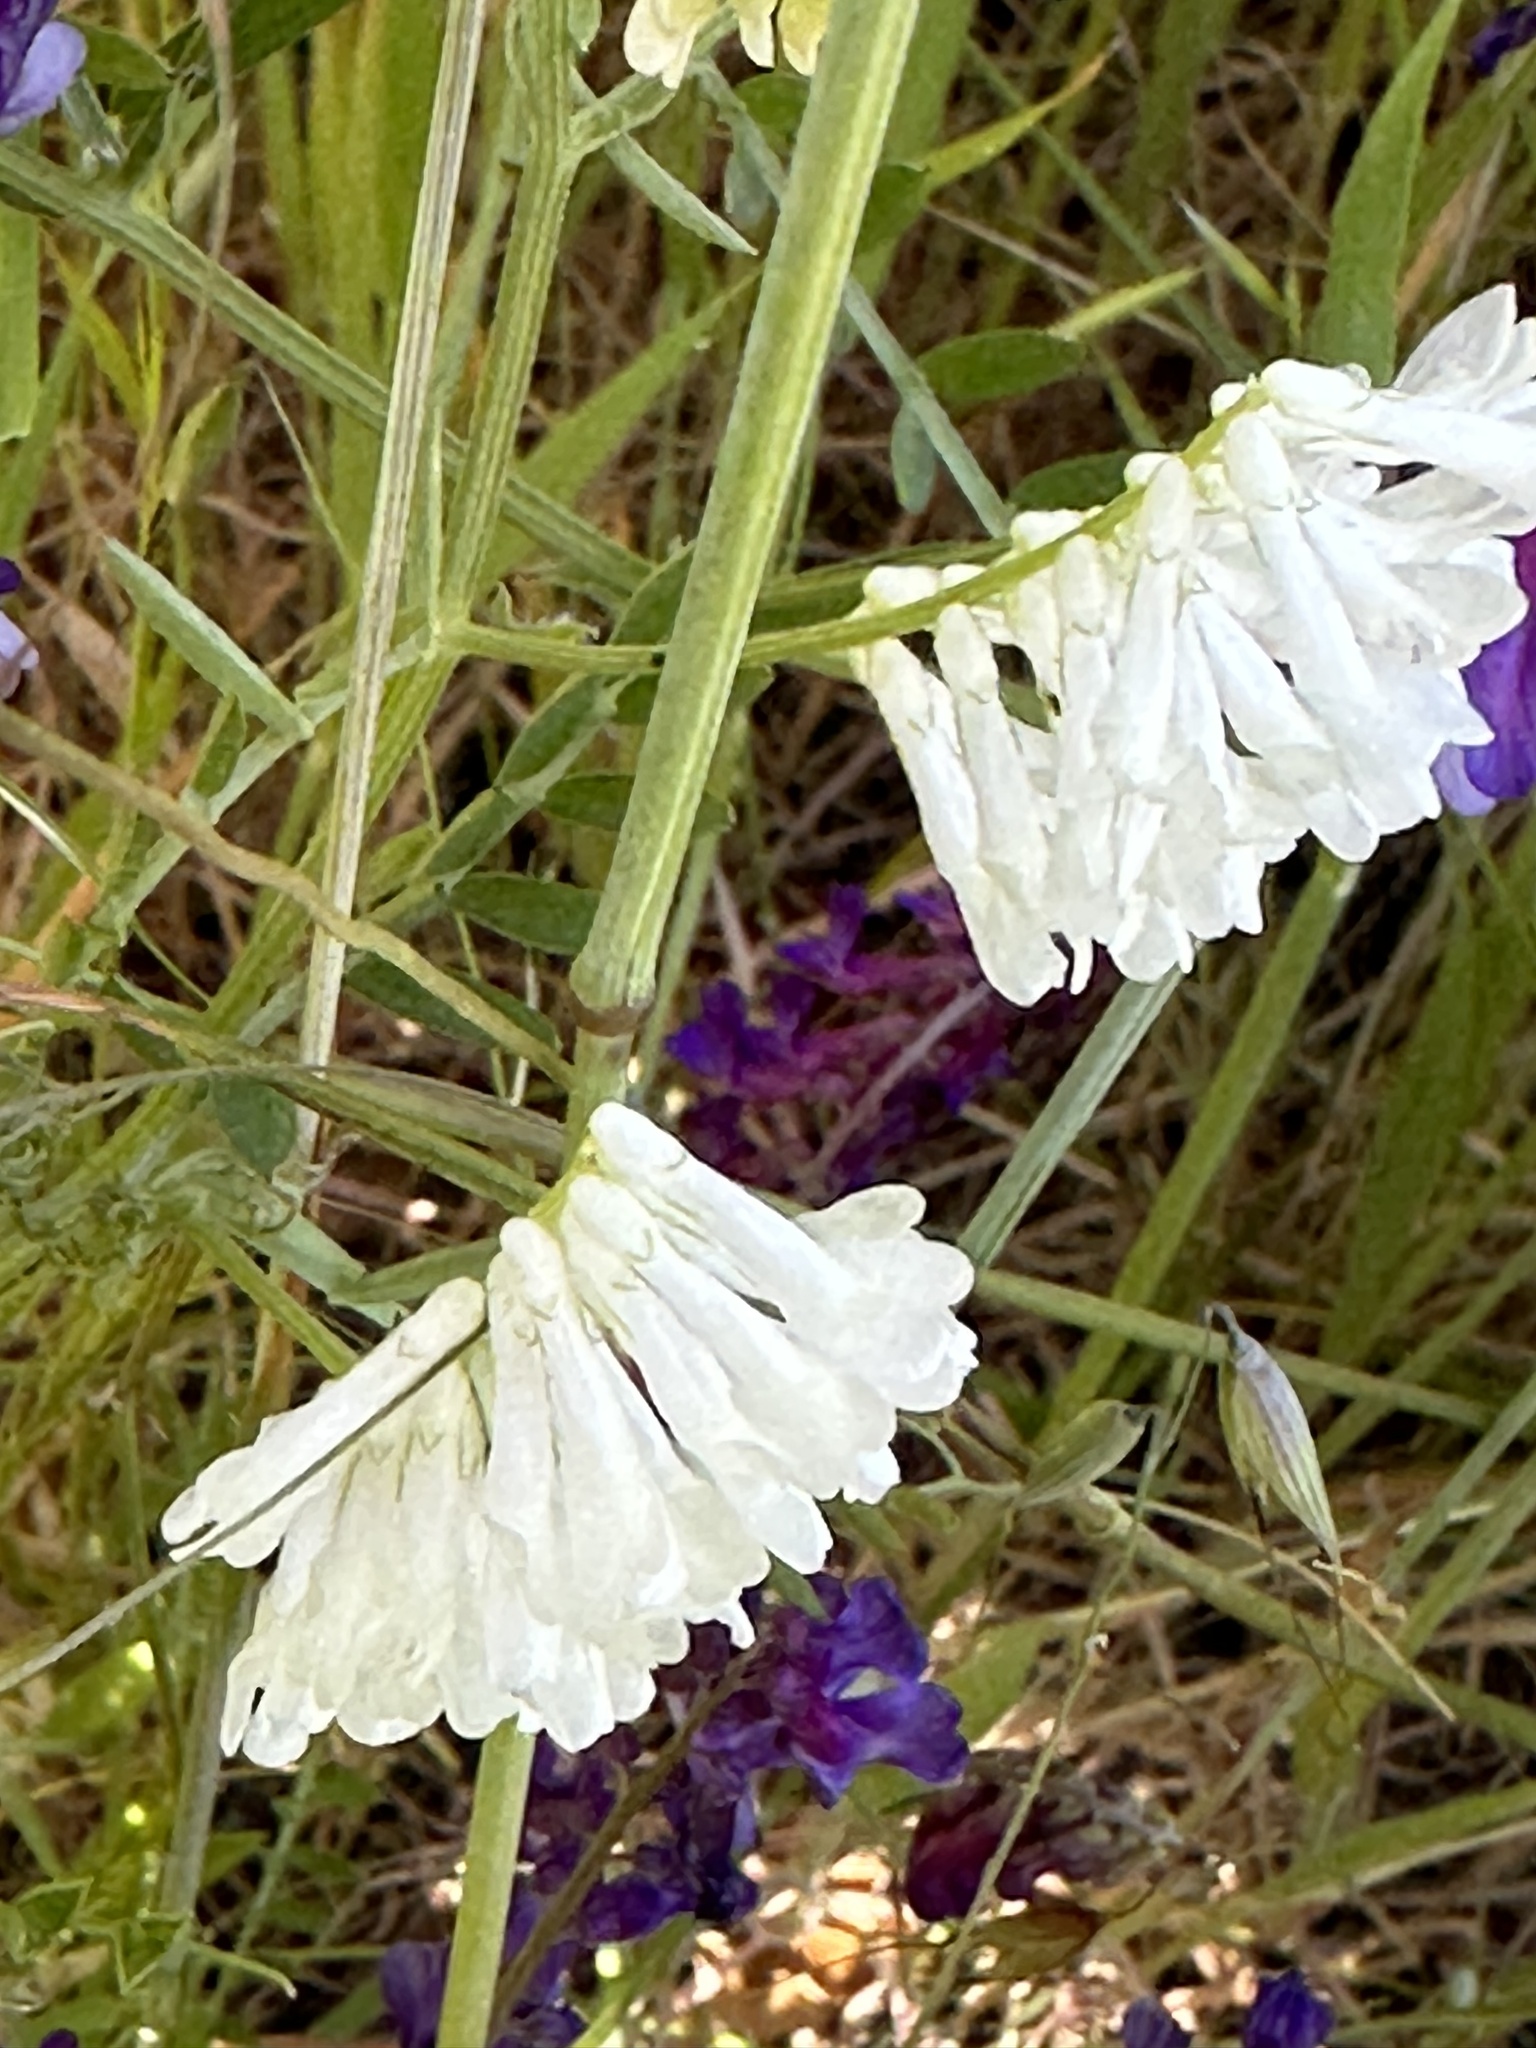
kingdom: Plantae
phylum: Tracheophyta
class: Magnoliopsida
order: Fabales
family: Fabaceae
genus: Vicia
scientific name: Vicia villosa
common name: Fodder vetch
